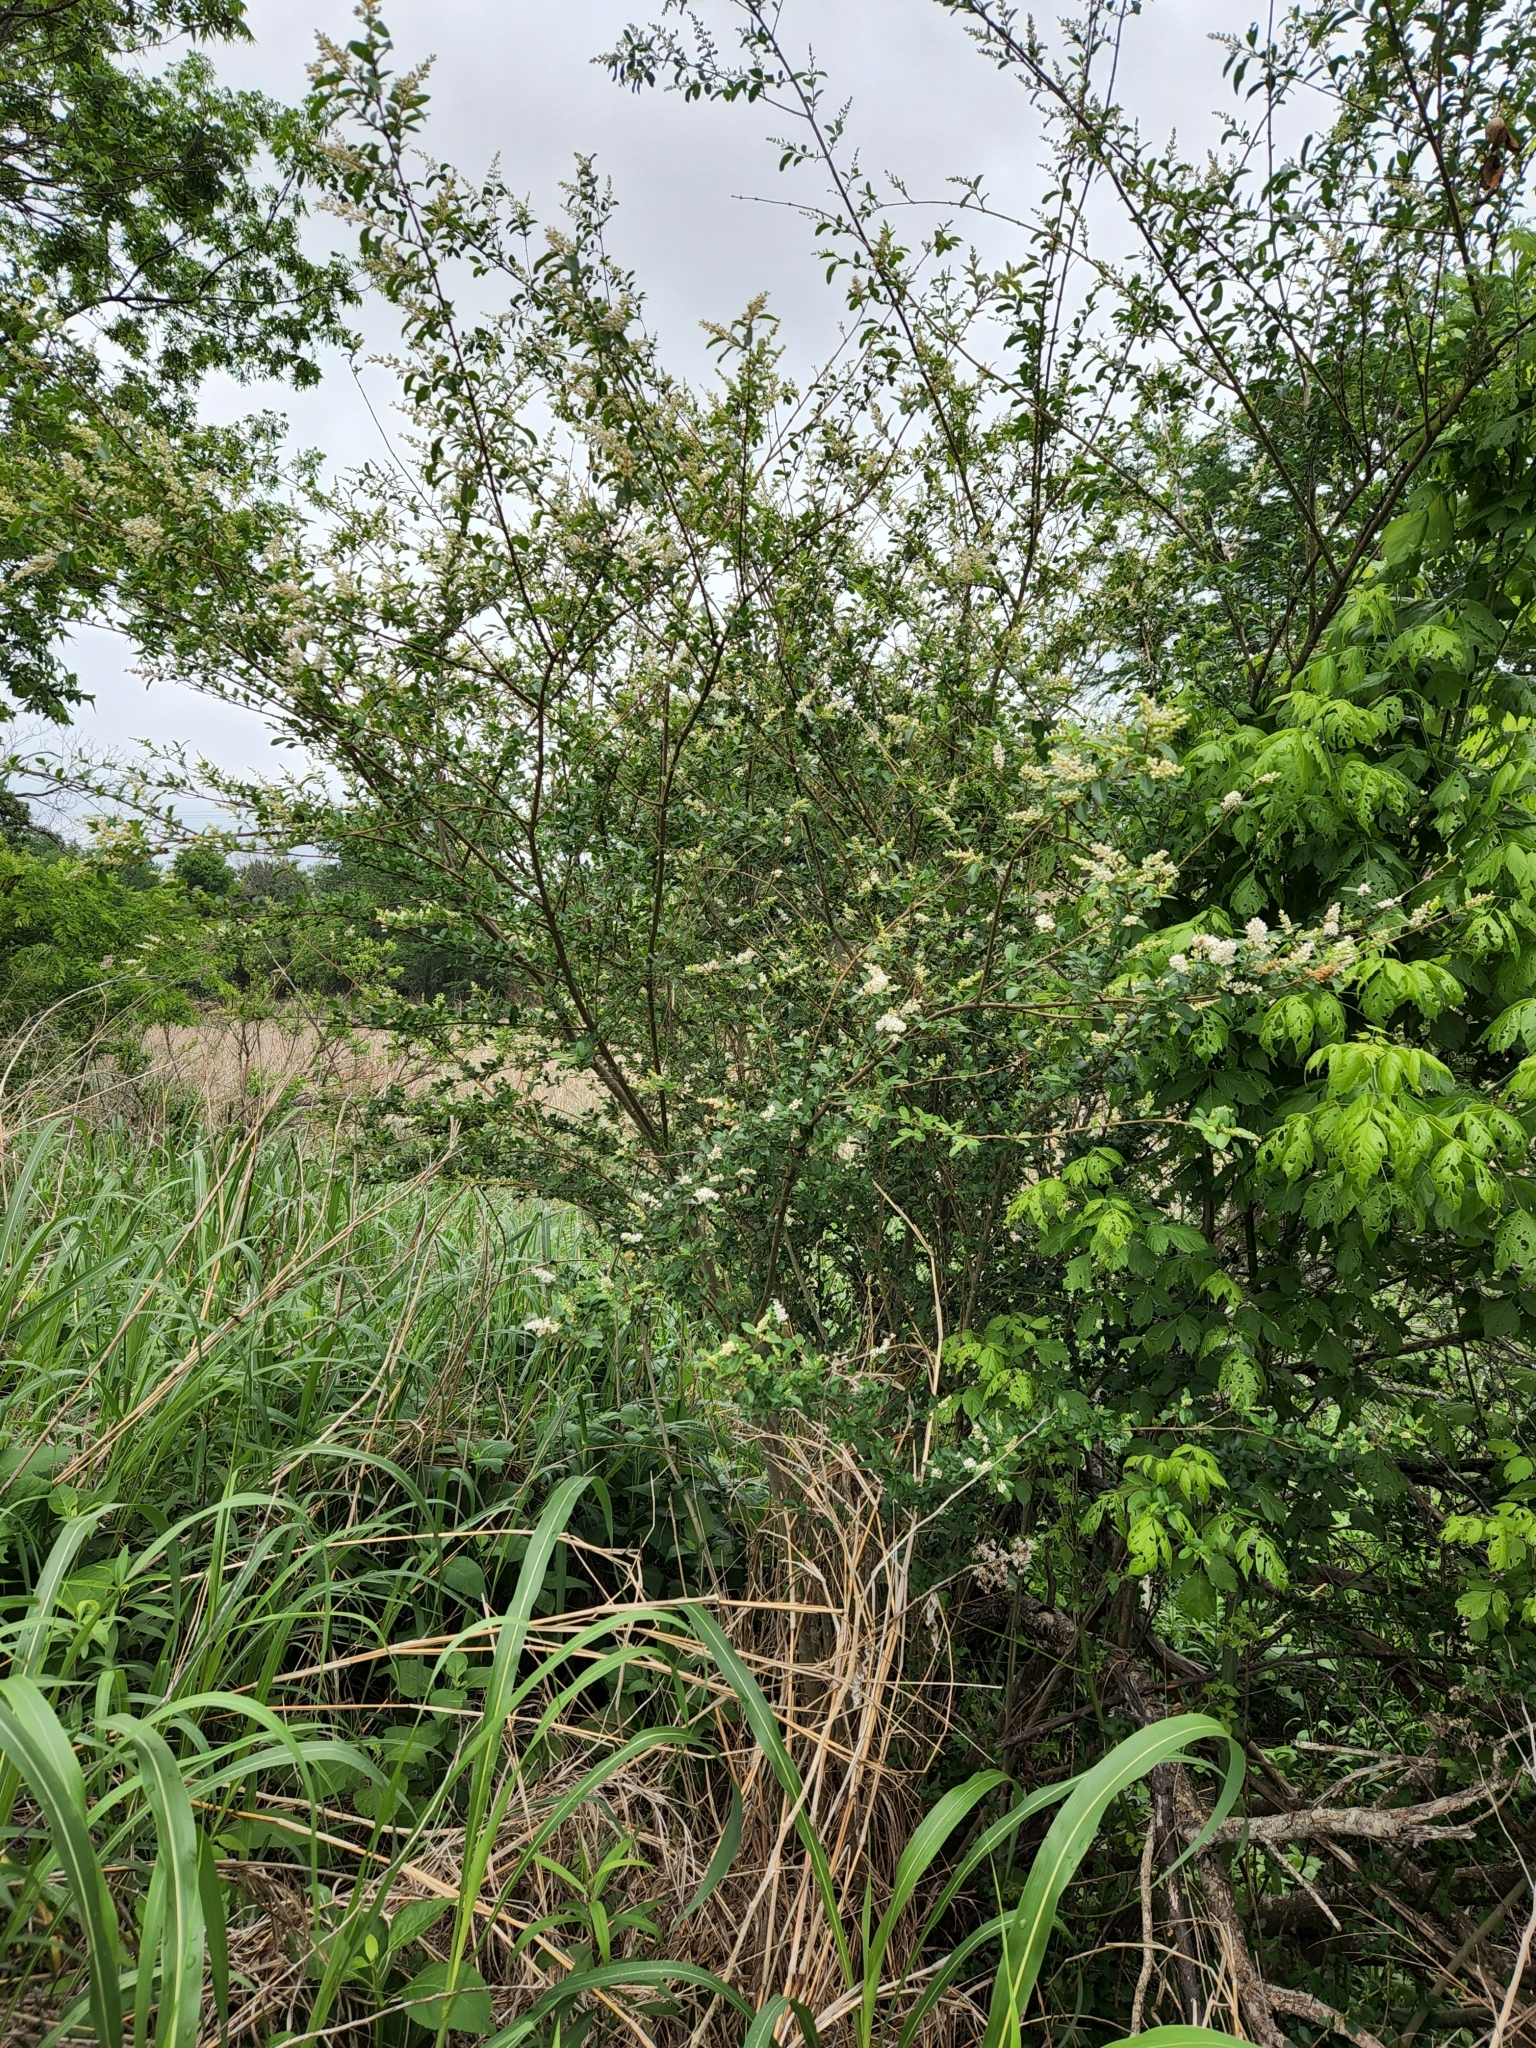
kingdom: Plantae
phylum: Tracheophyta
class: Magnoliopsida
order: Lamiales
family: Oleaceae
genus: Ligustrum
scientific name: Ligustrum sinense
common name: Chinese privet
